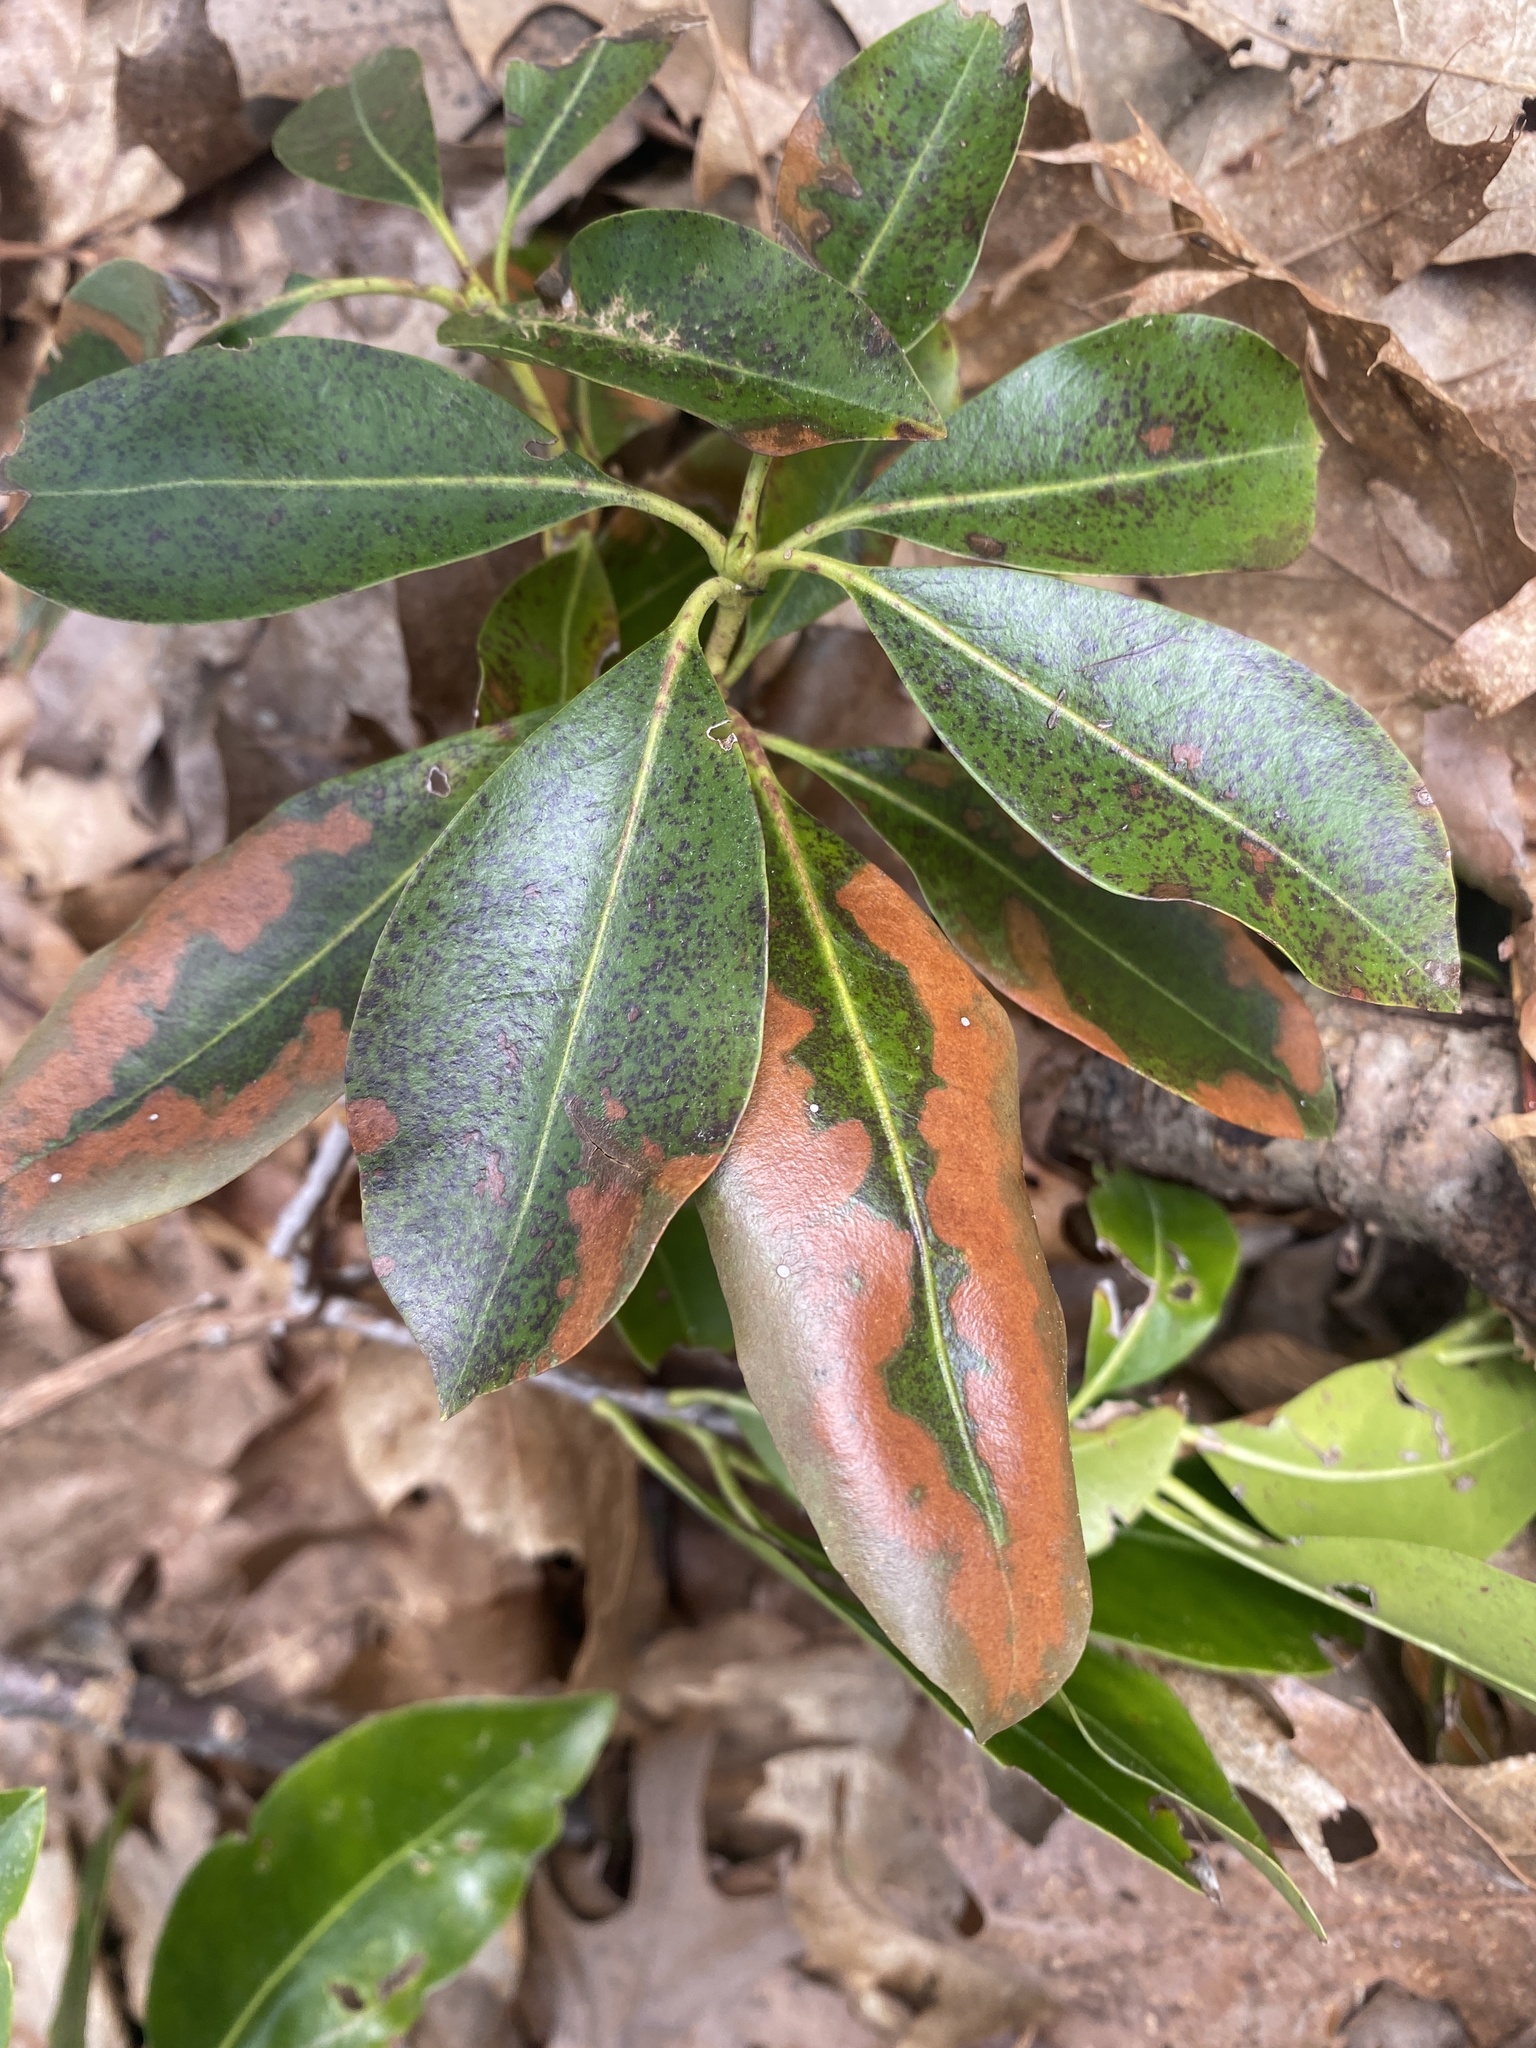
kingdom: Plantae
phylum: Tracheophyta
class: Magnoliopsida
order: Ericales
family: Ericaceae
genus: Kalmia
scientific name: Kalmia latifolia
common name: Mountain-laurel
